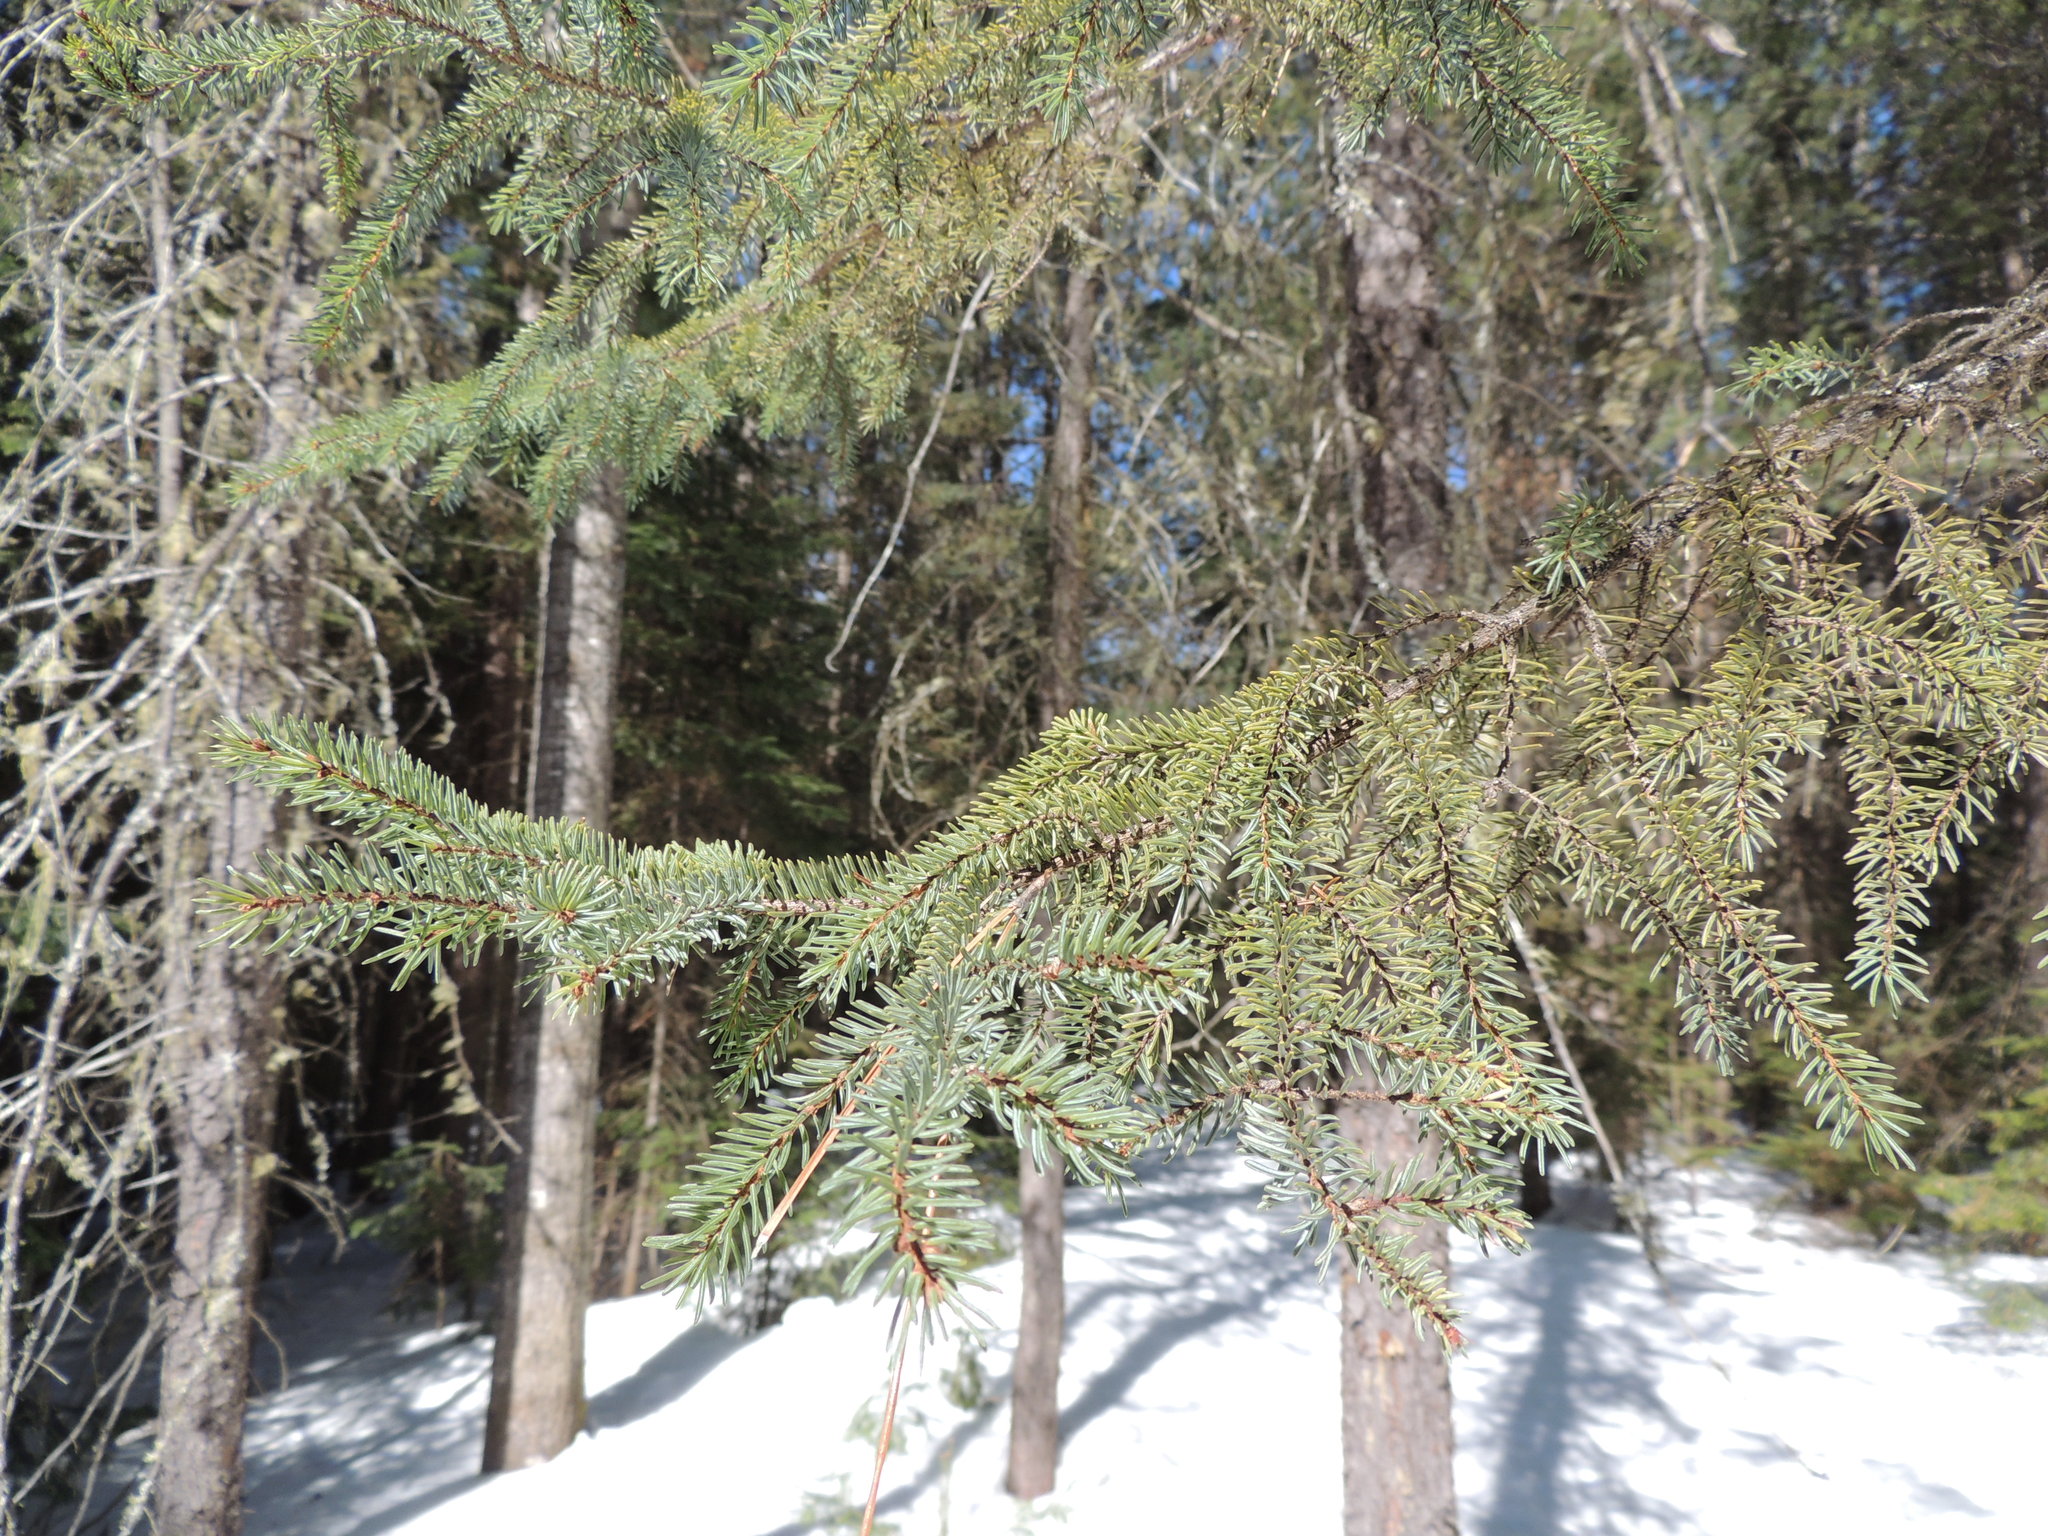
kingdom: Plantae
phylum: Tracheophyta
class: Pinopsida
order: Pinales
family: Pinaceae
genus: Picea
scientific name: Picea mariana
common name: Black spruce
